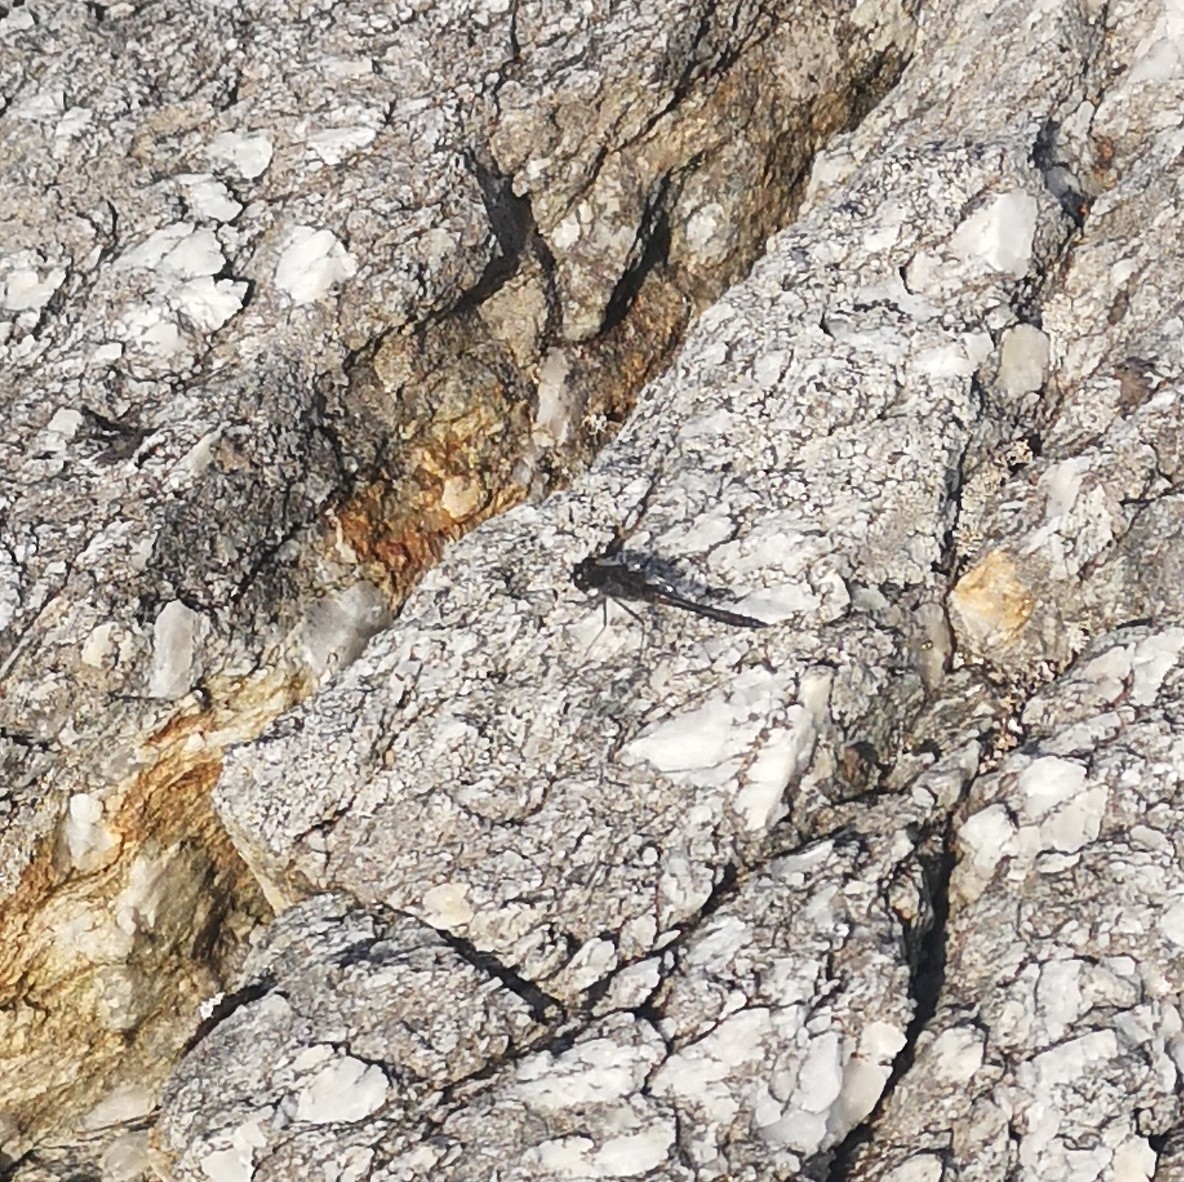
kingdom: Animalia
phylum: Arthropoda
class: Insecta
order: Odonata
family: Libellulidae
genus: Sympetrum
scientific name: Sympetrum danae
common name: Black darter
